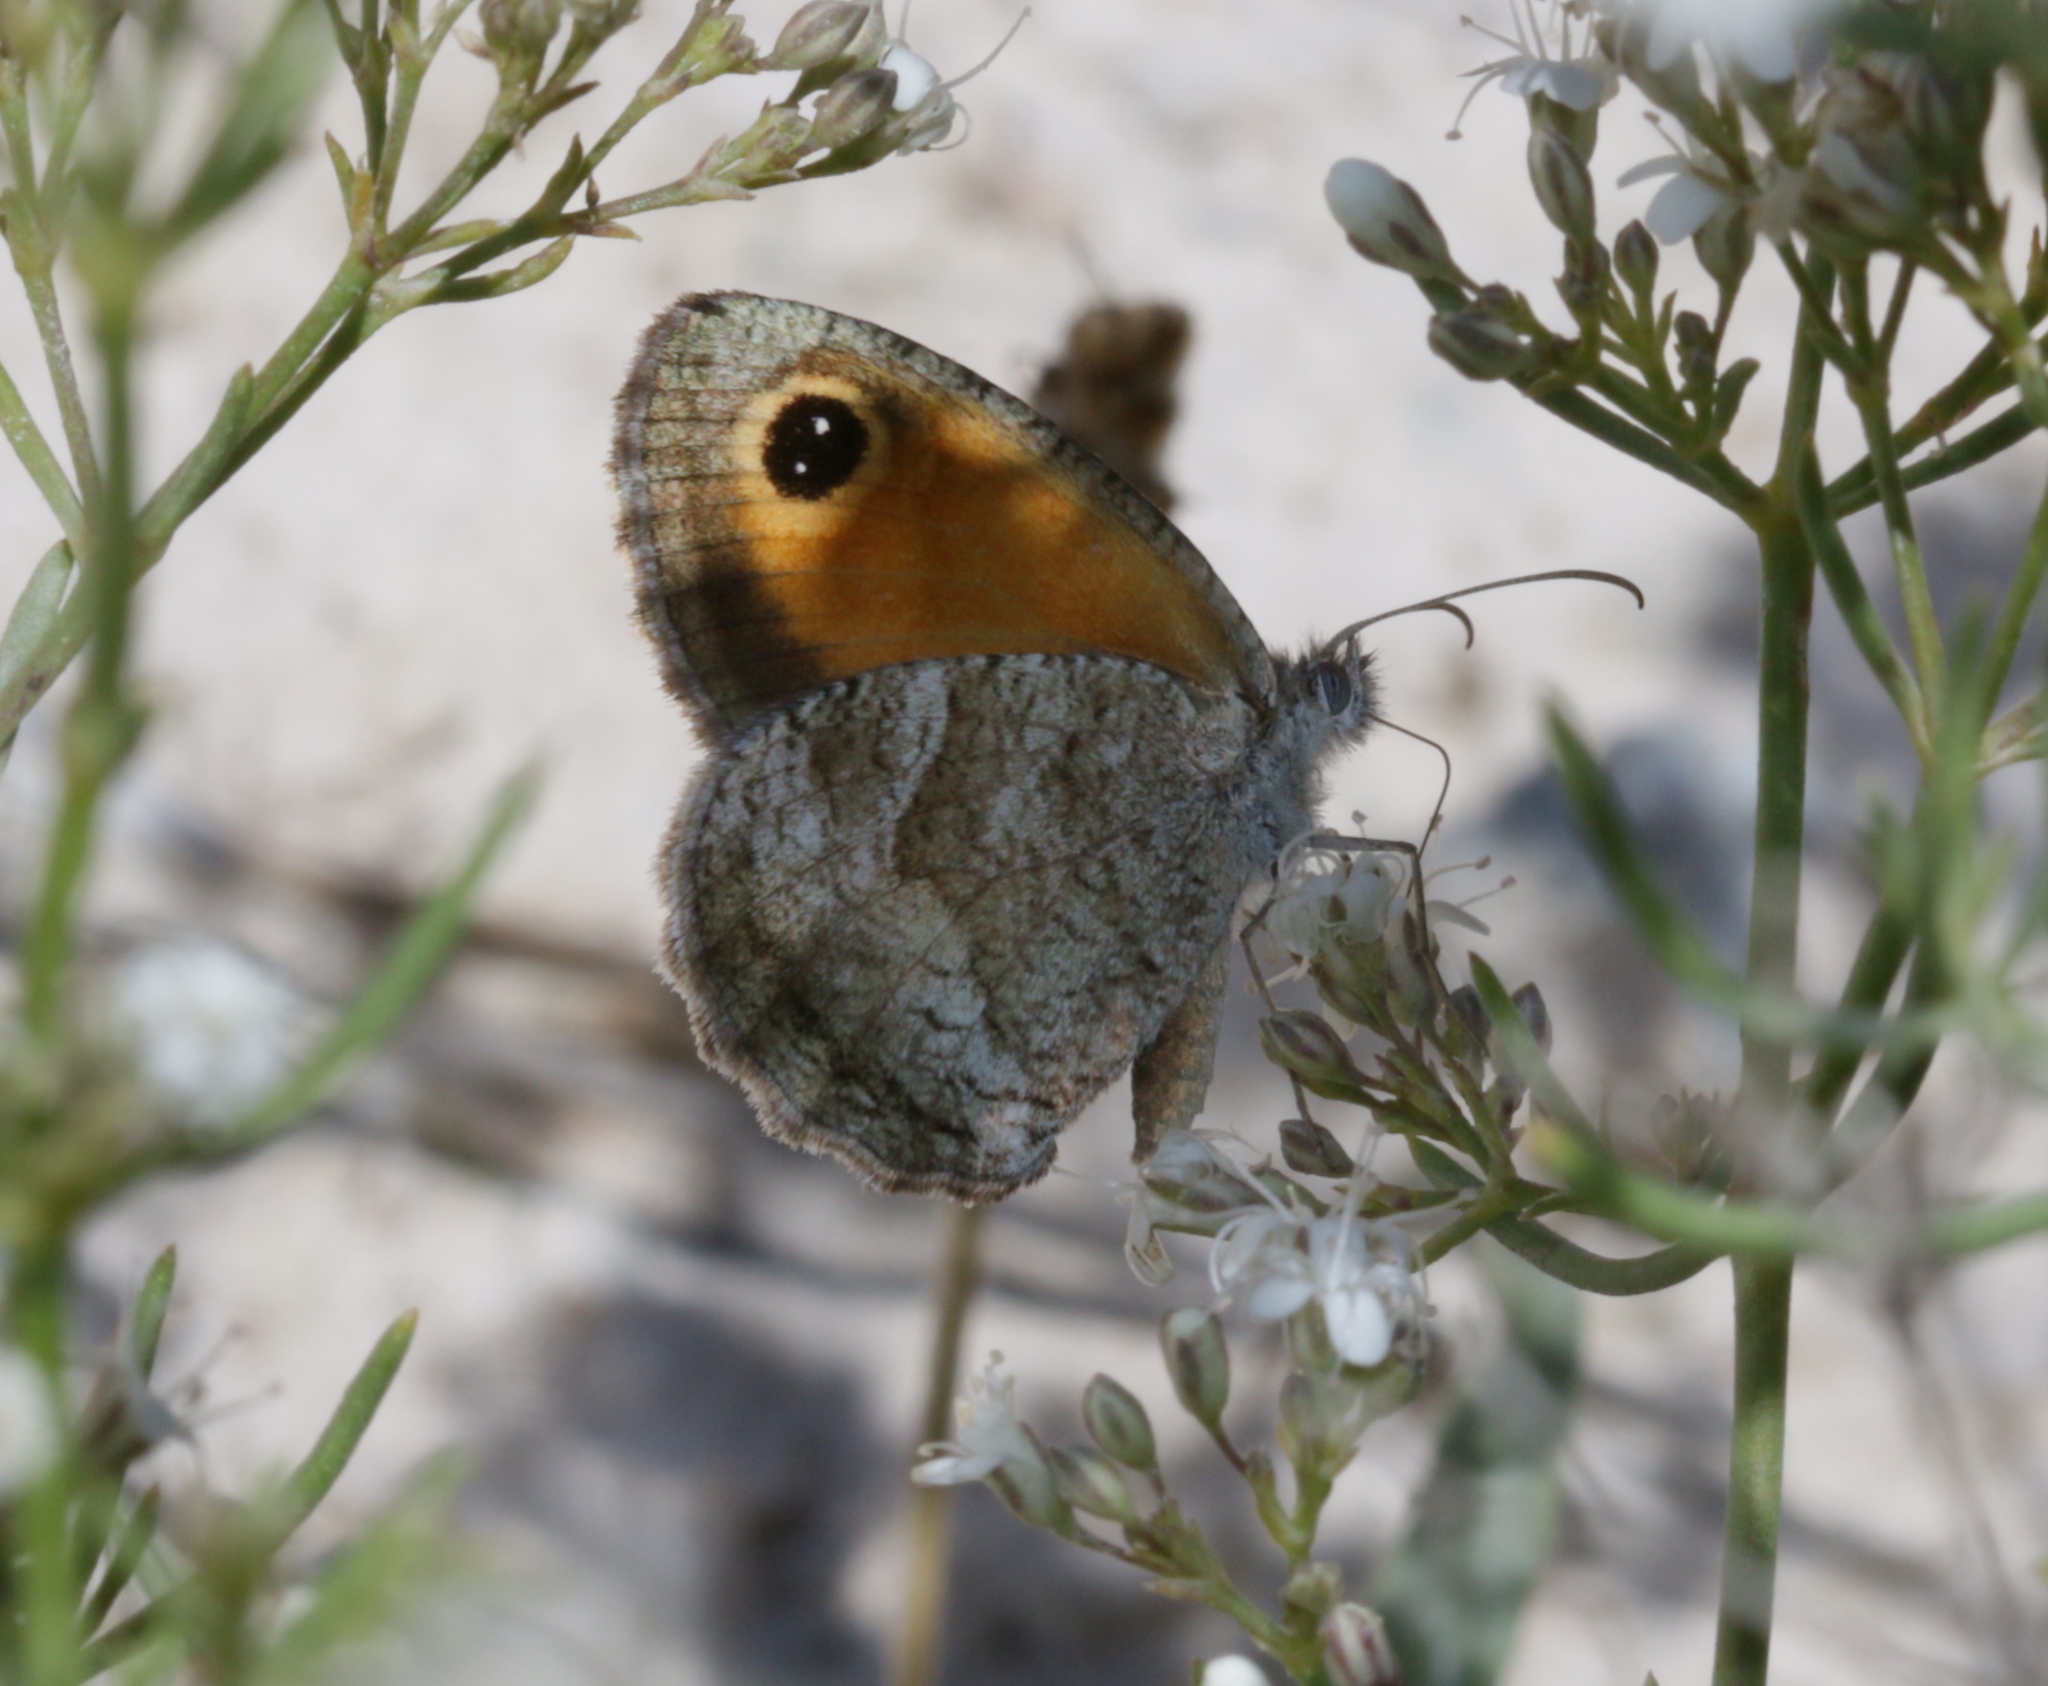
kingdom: Animalia
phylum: Arthropoda
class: Insecta
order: Lepidoptera
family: Nymphalidae
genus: Pyronia
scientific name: Pyronia cecilia
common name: Southern gatekeeper
